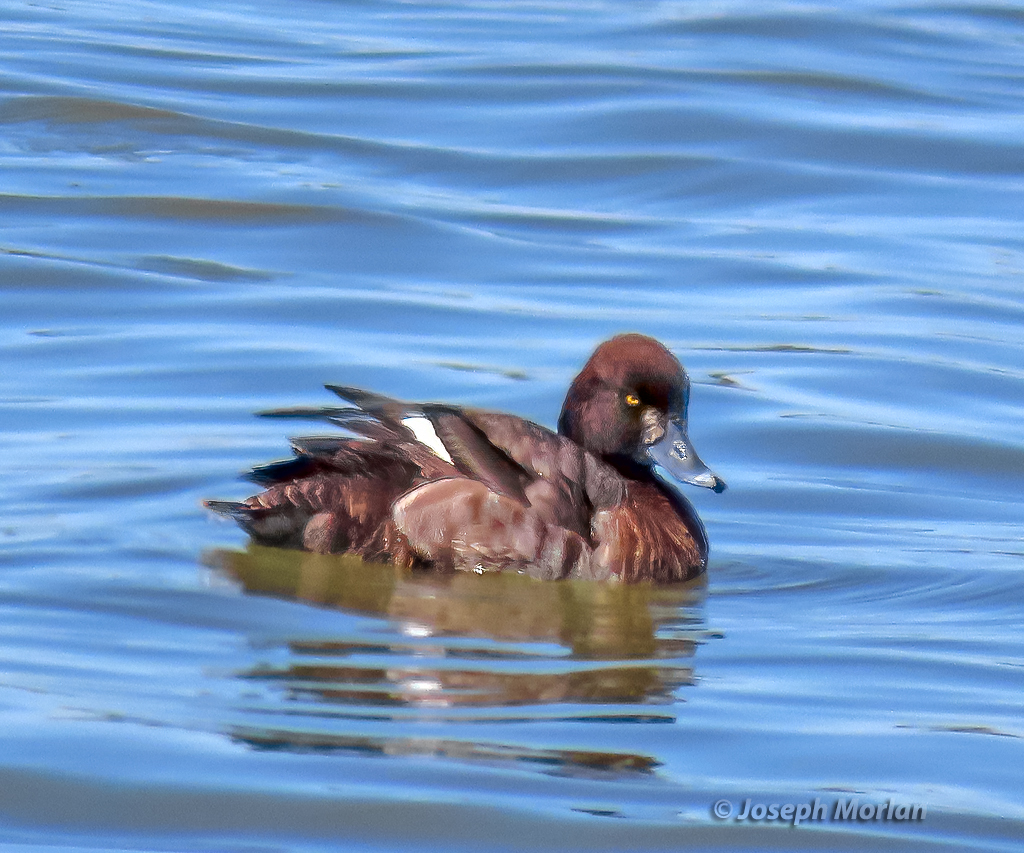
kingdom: Animalia
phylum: Chordata
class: Aves
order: Anseriformes
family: Anatidae
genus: Aythya
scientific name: Aythya affinis
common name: Lesser scaup
